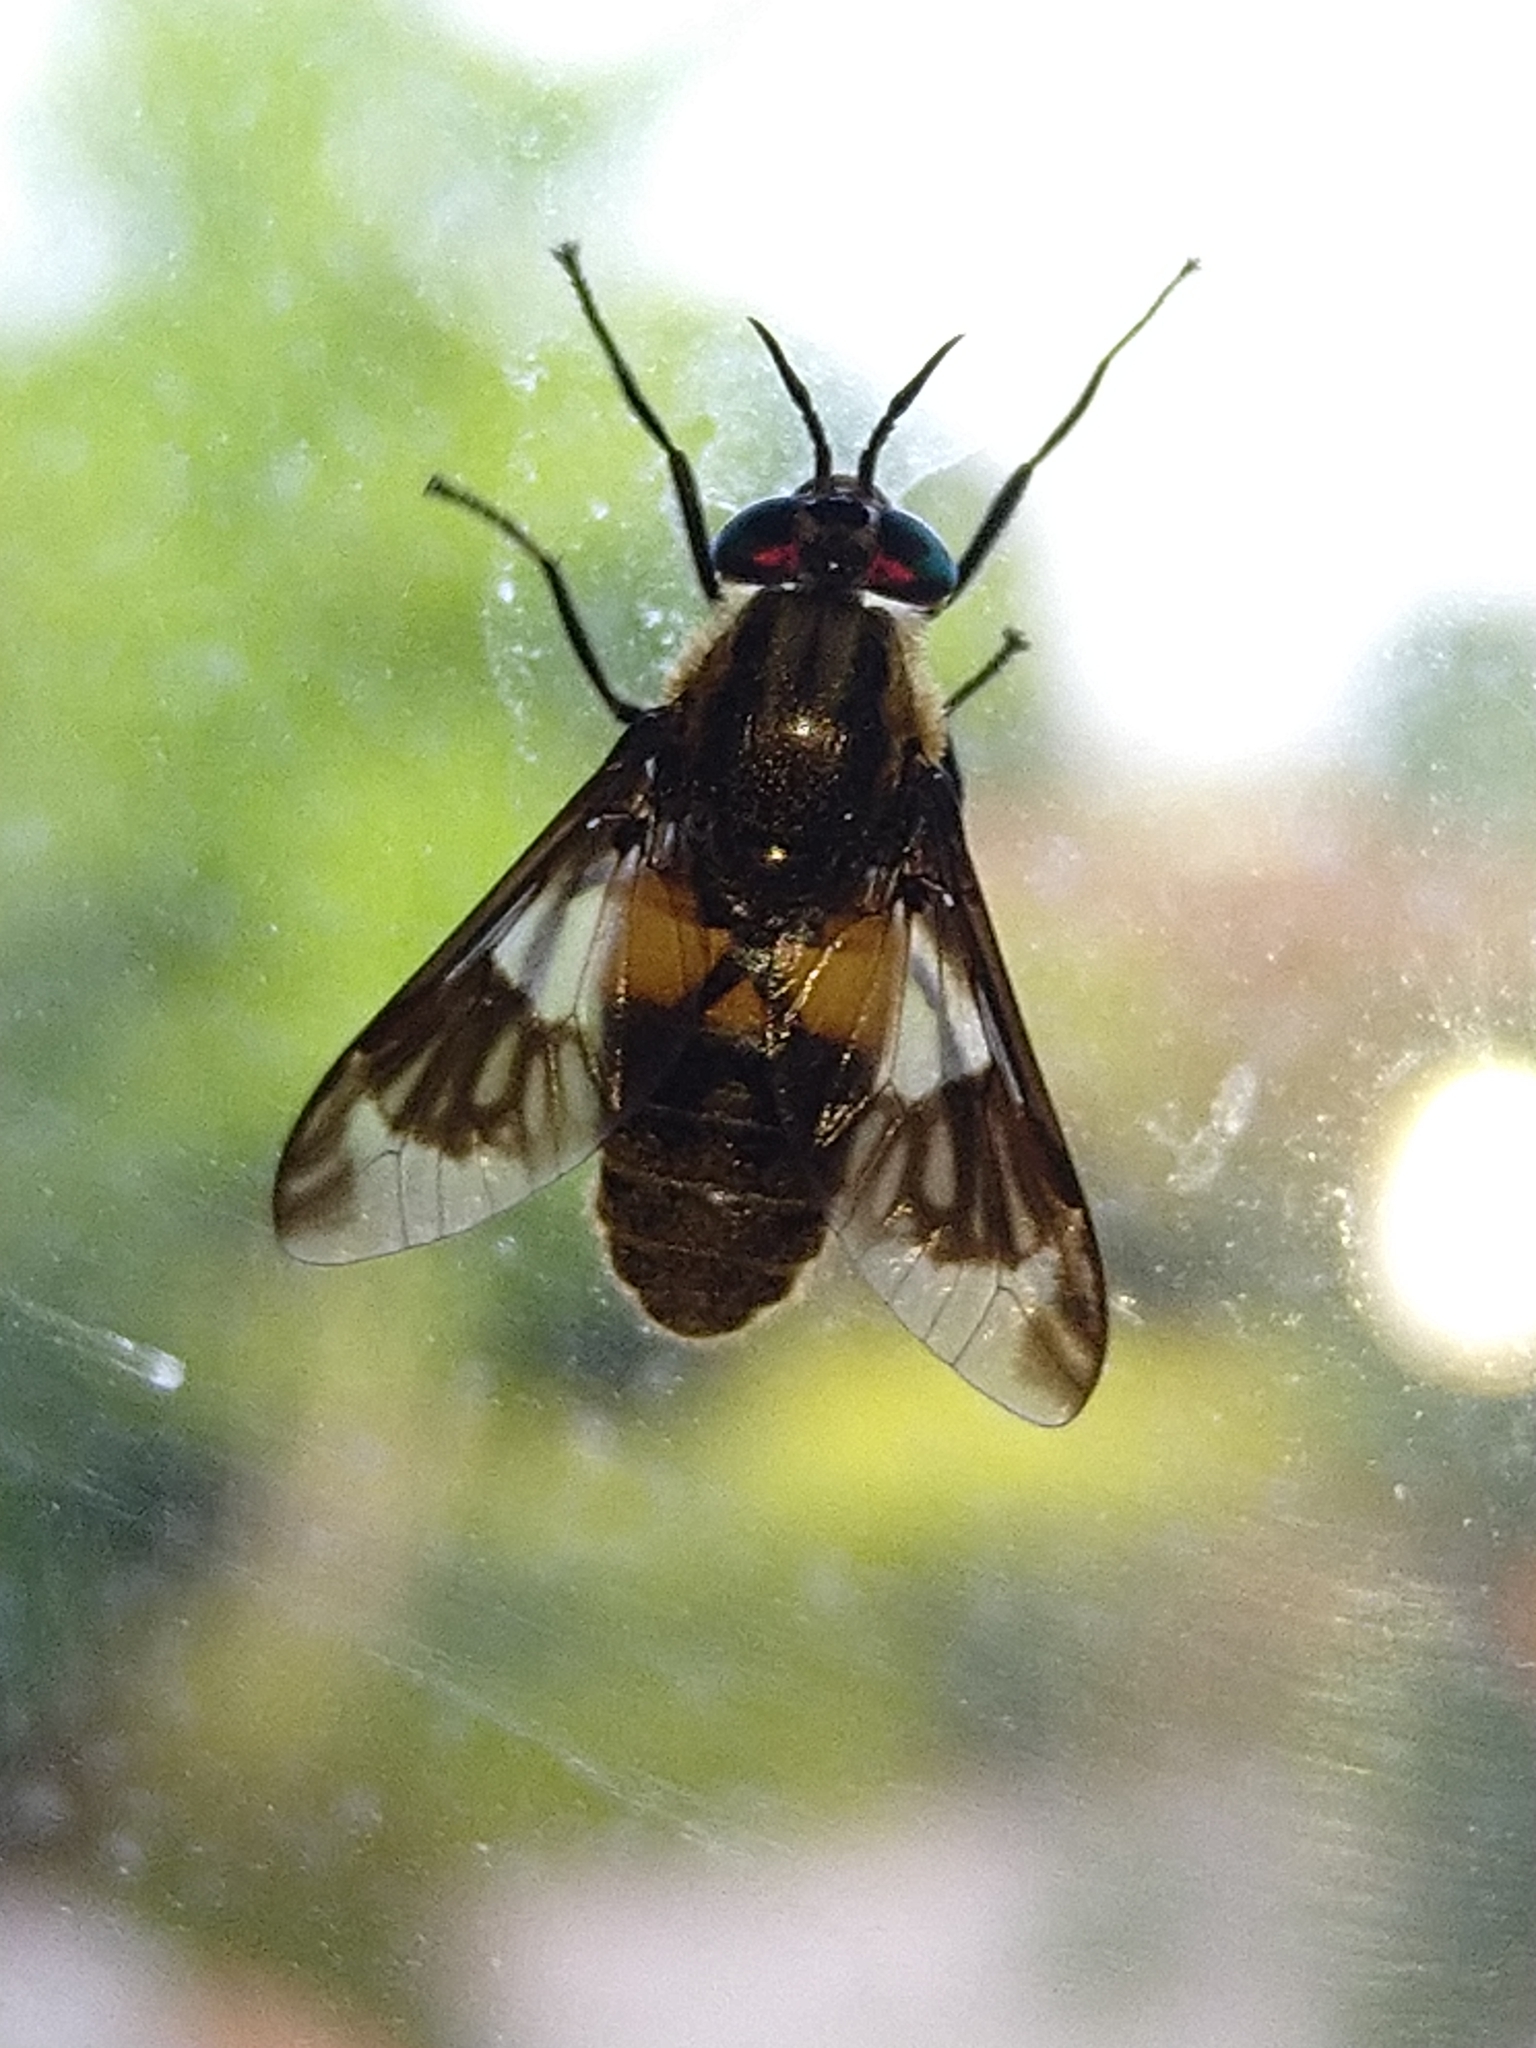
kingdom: Animalia
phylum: Arthropoda
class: Insecta
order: Diptera
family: Tabanidae
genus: Chrysops
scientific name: Chrysops caecutiens
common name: Splayed deerfly
